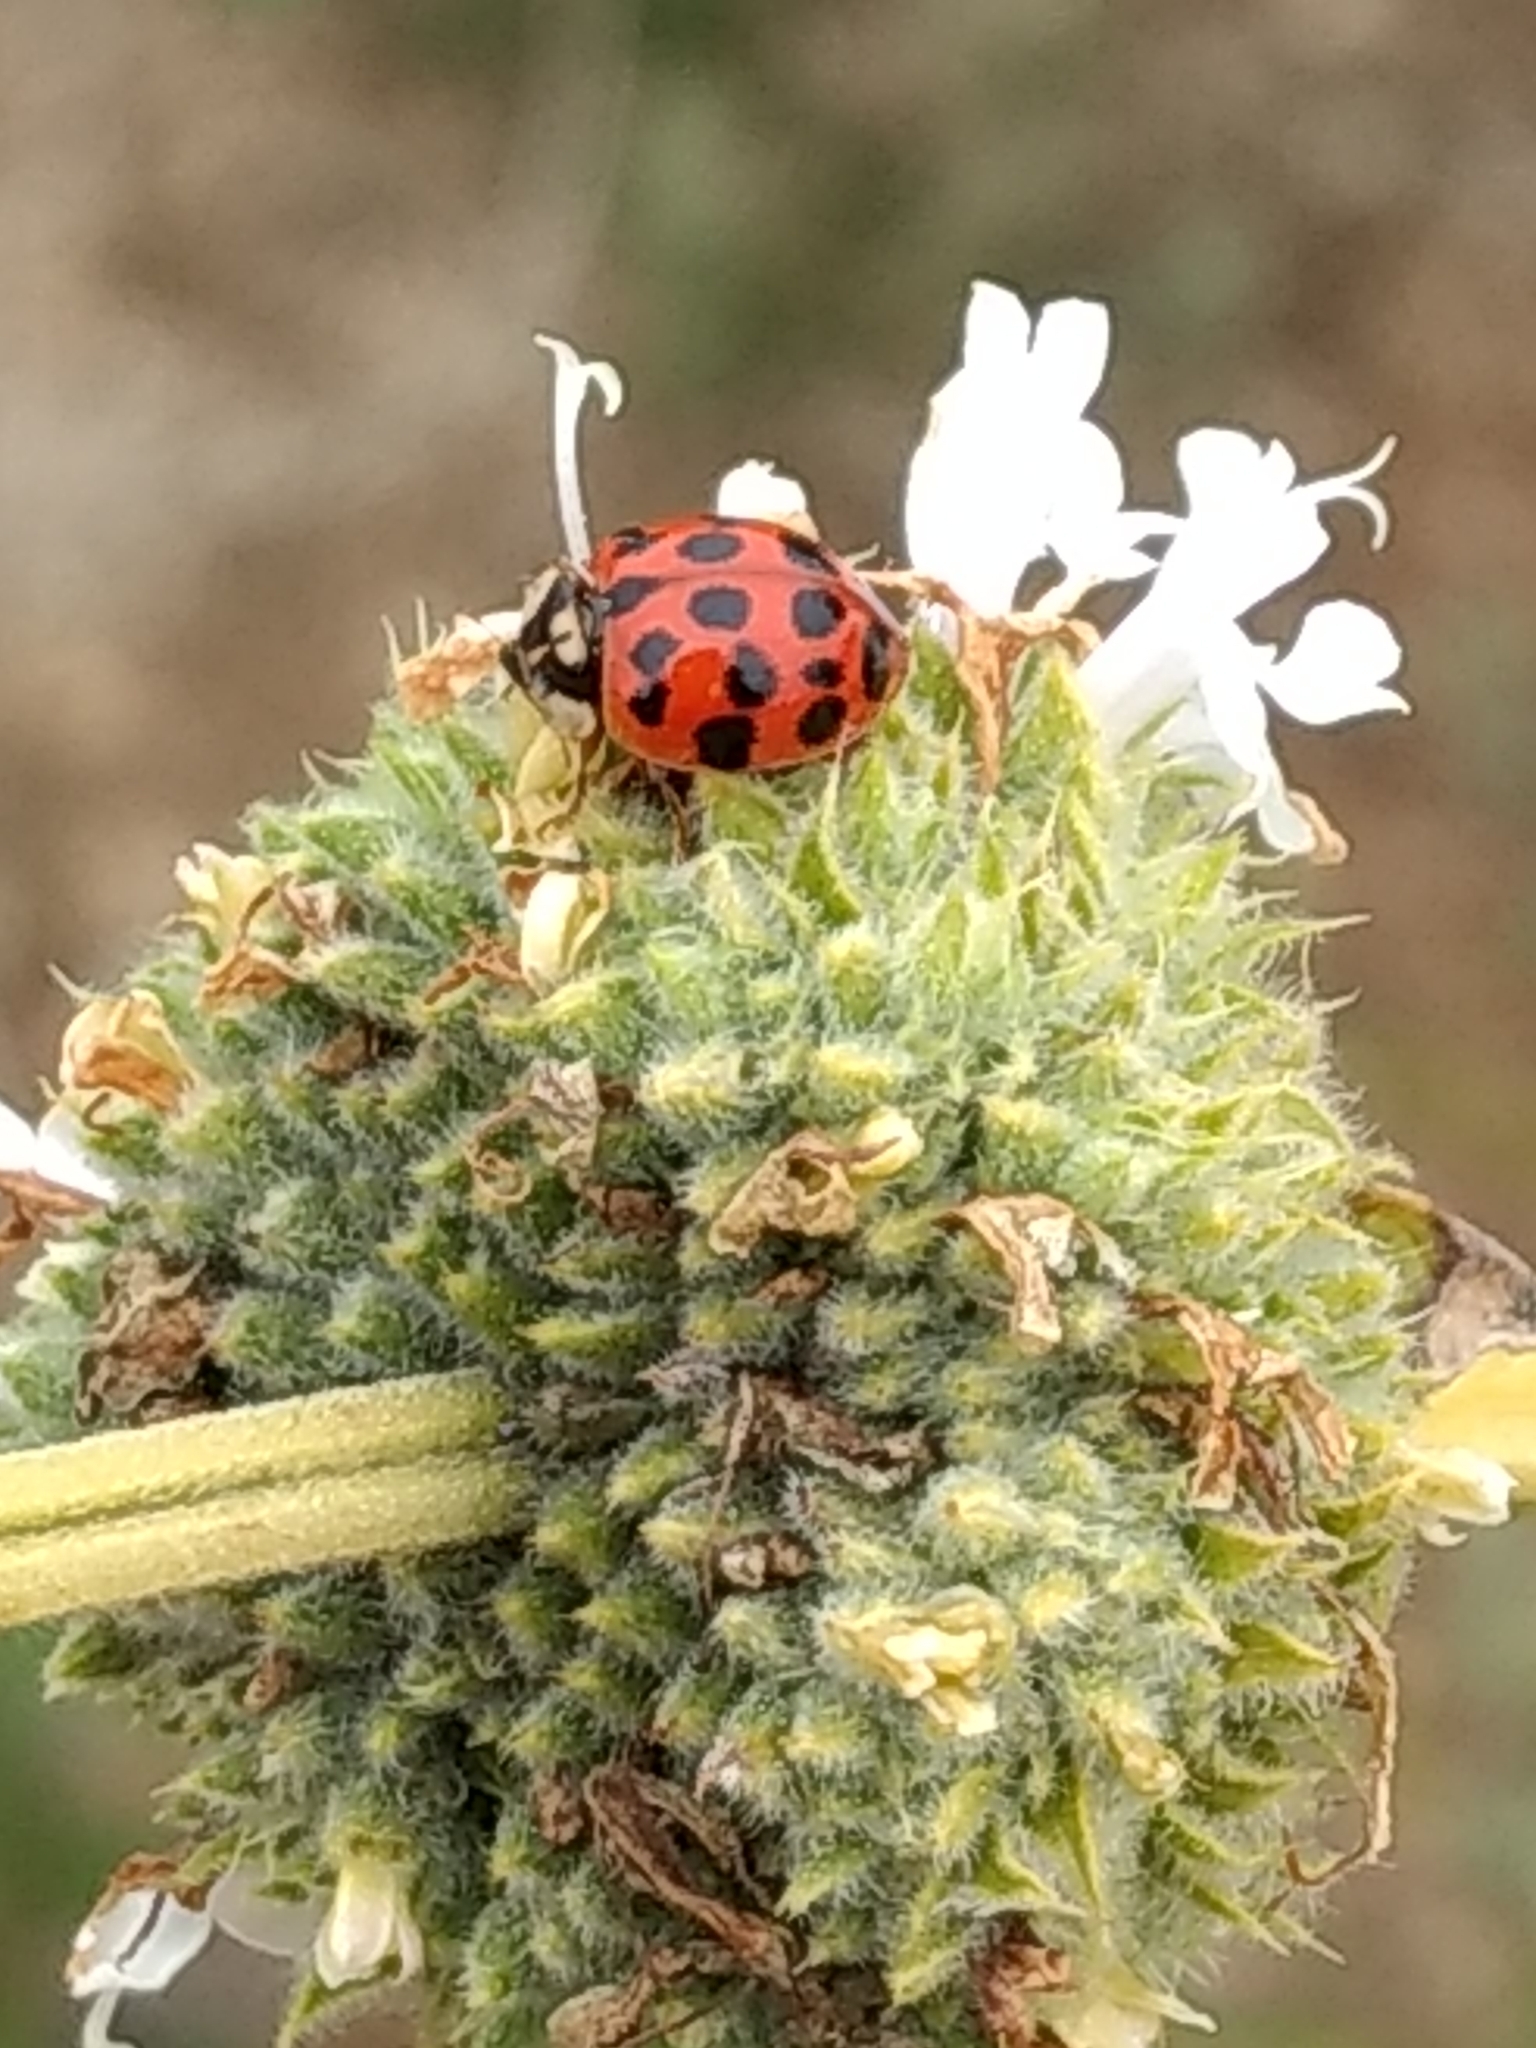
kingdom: Animalia
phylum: Arthropoda
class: Insecta
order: Coleoptera
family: Coccinellidae
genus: Harmonia
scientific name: Harmonia axyridis
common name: Harlequin ladybird
